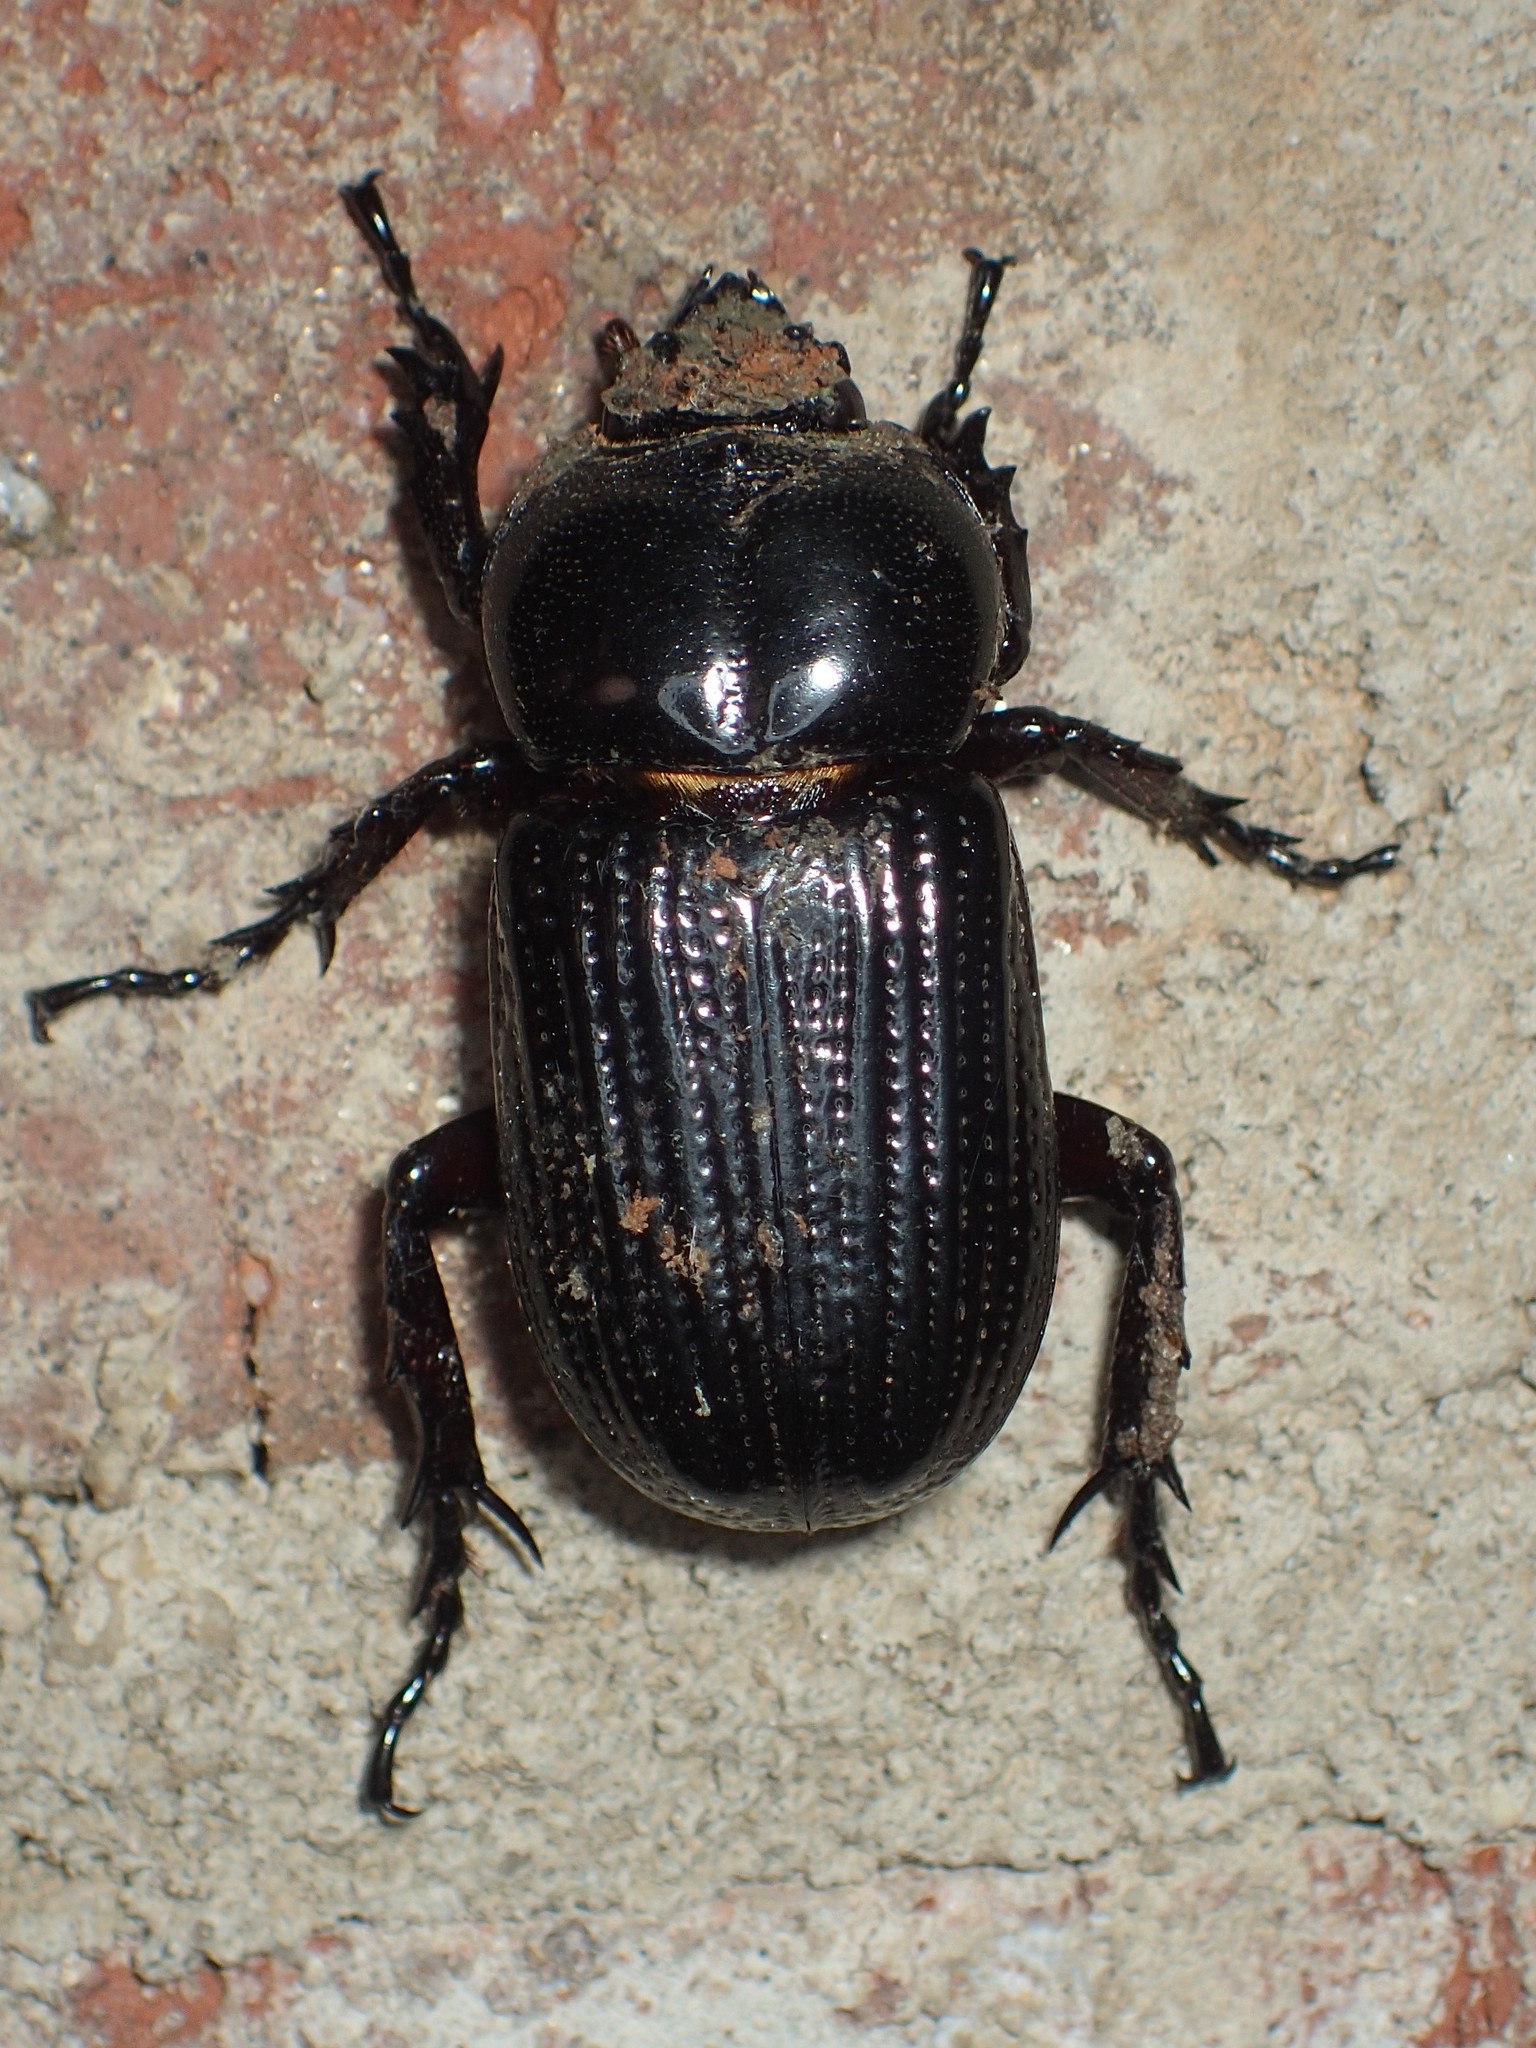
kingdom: Animalia
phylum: Arthropoda
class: Insecta
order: Coleoptera
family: Scarabaeidae
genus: Phileurus
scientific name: Phileurus valgus
